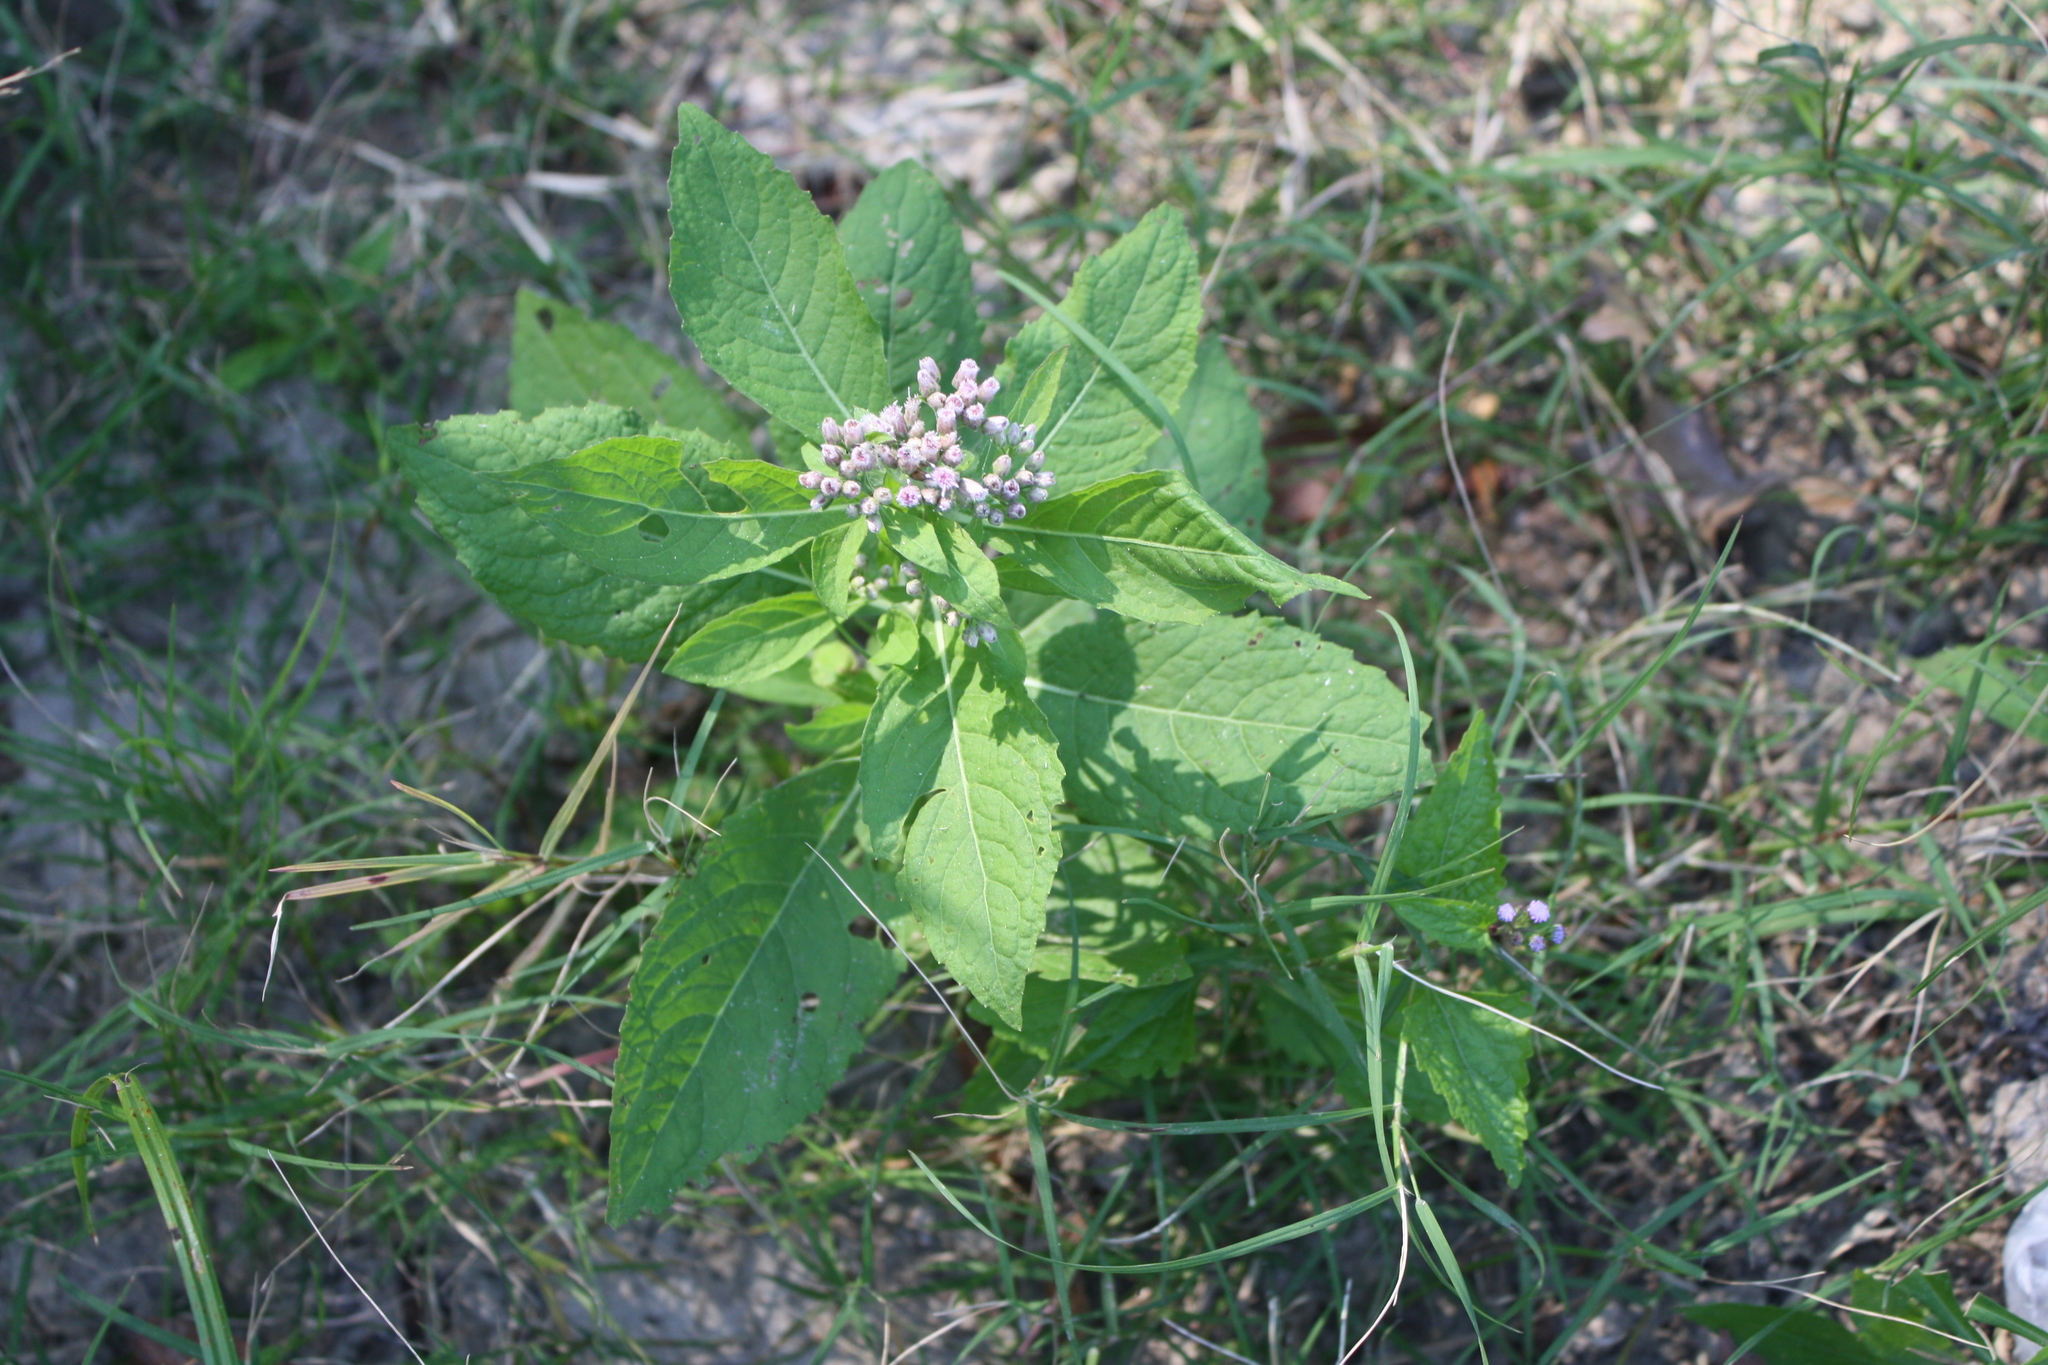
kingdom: Plantae
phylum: Tracheophyta
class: Magnoliopsida
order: Asterales
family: Asteraceae
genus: Pluchea
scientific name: Pluchea camphorata
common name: Camphor pluchea
